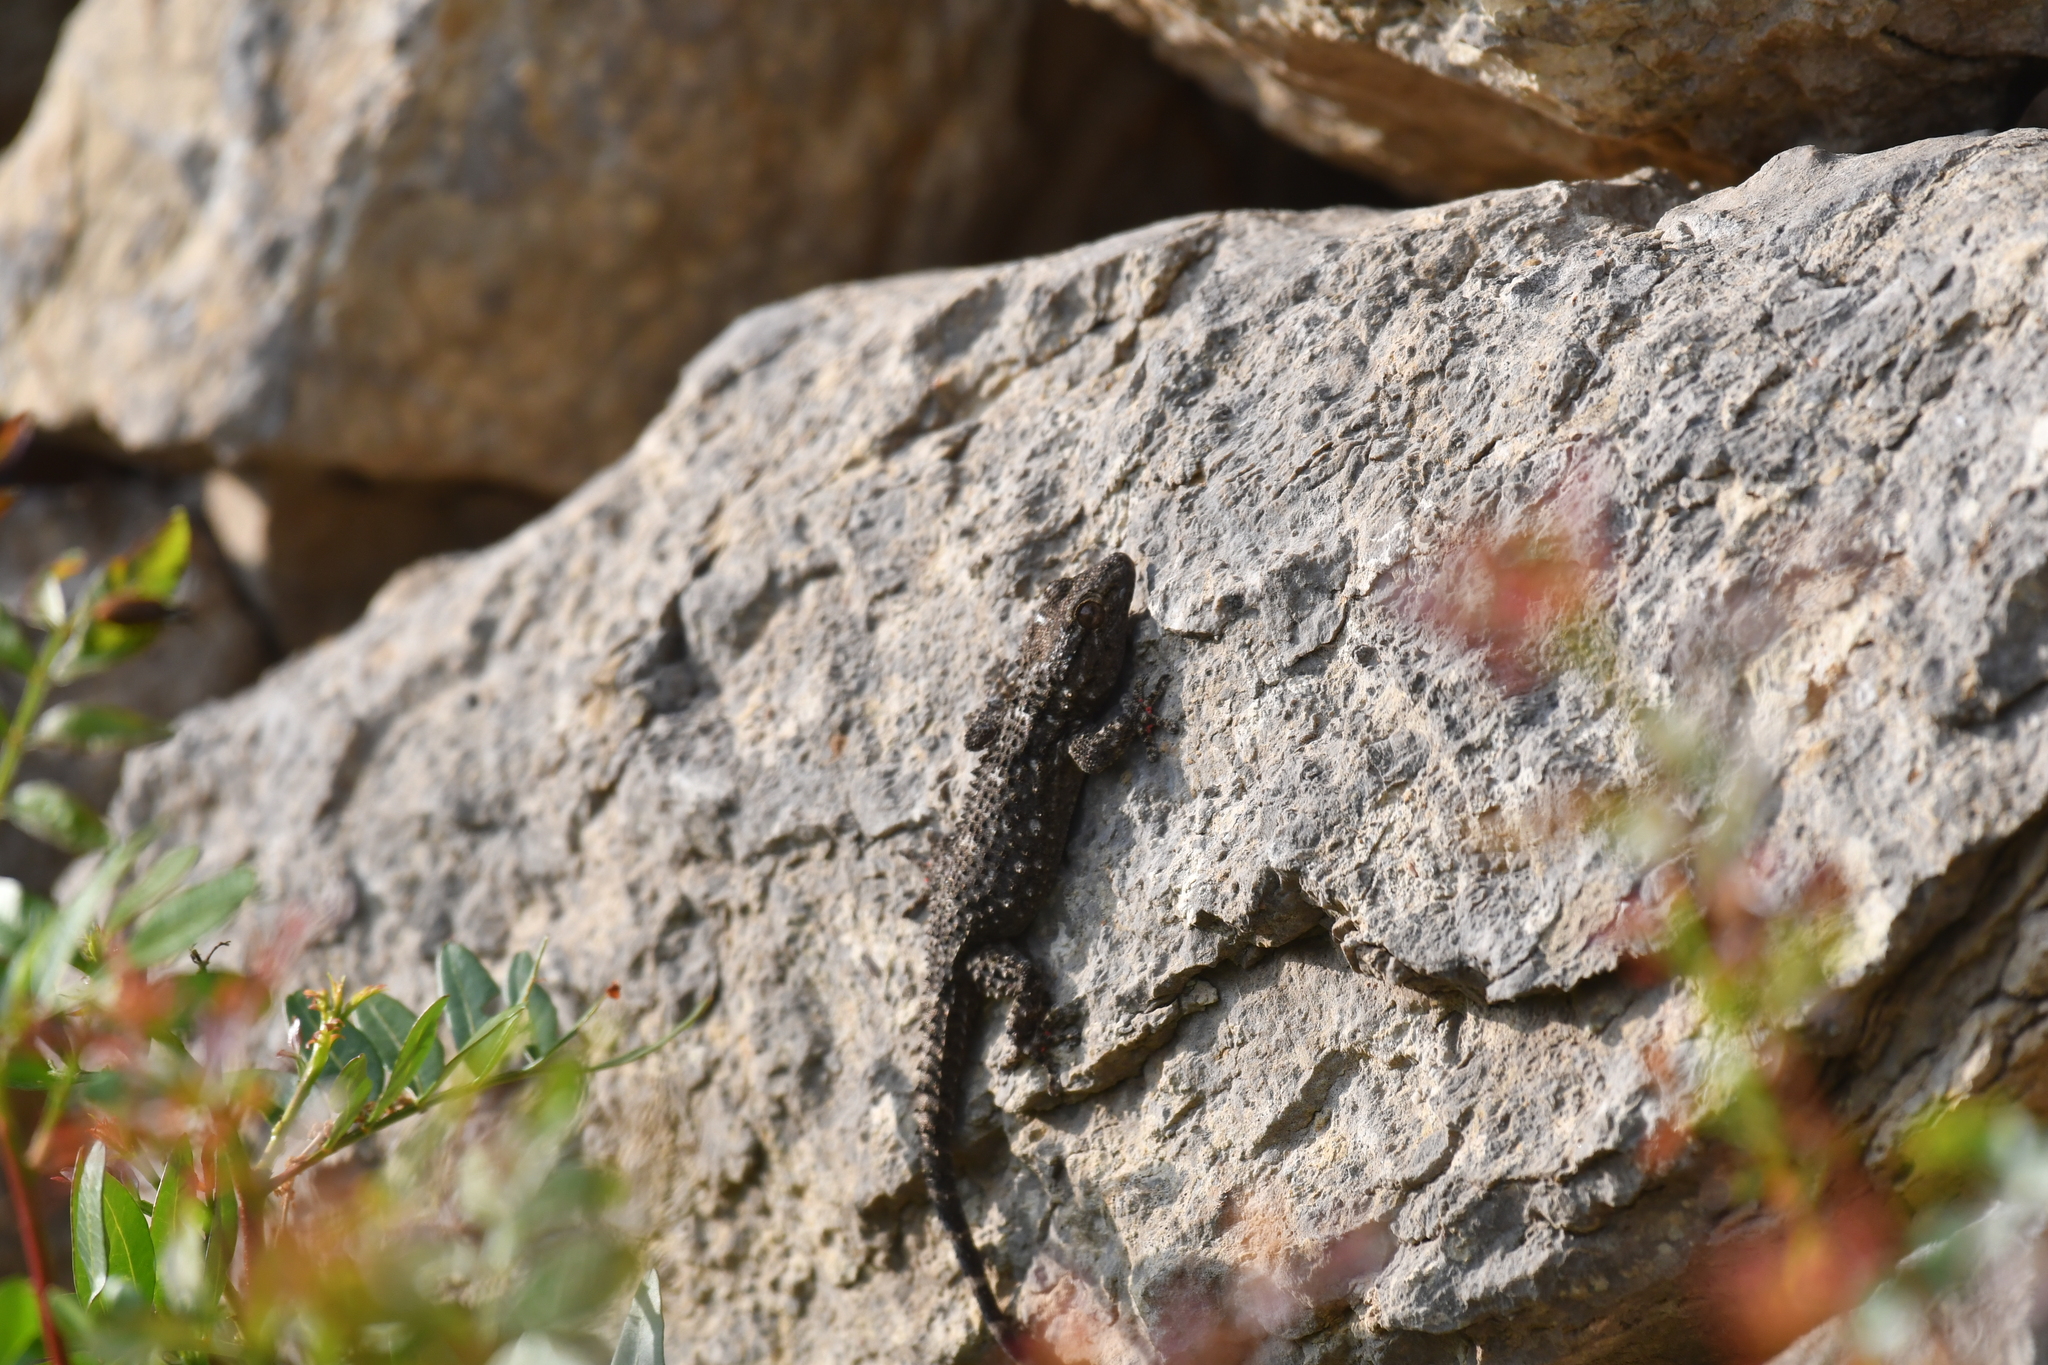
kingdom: Animalia
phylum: Chordata
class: Squamata
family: Phyllodactylidae
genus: Tarentola
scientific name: Tarentola mauritanica
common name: Moorish gecko
